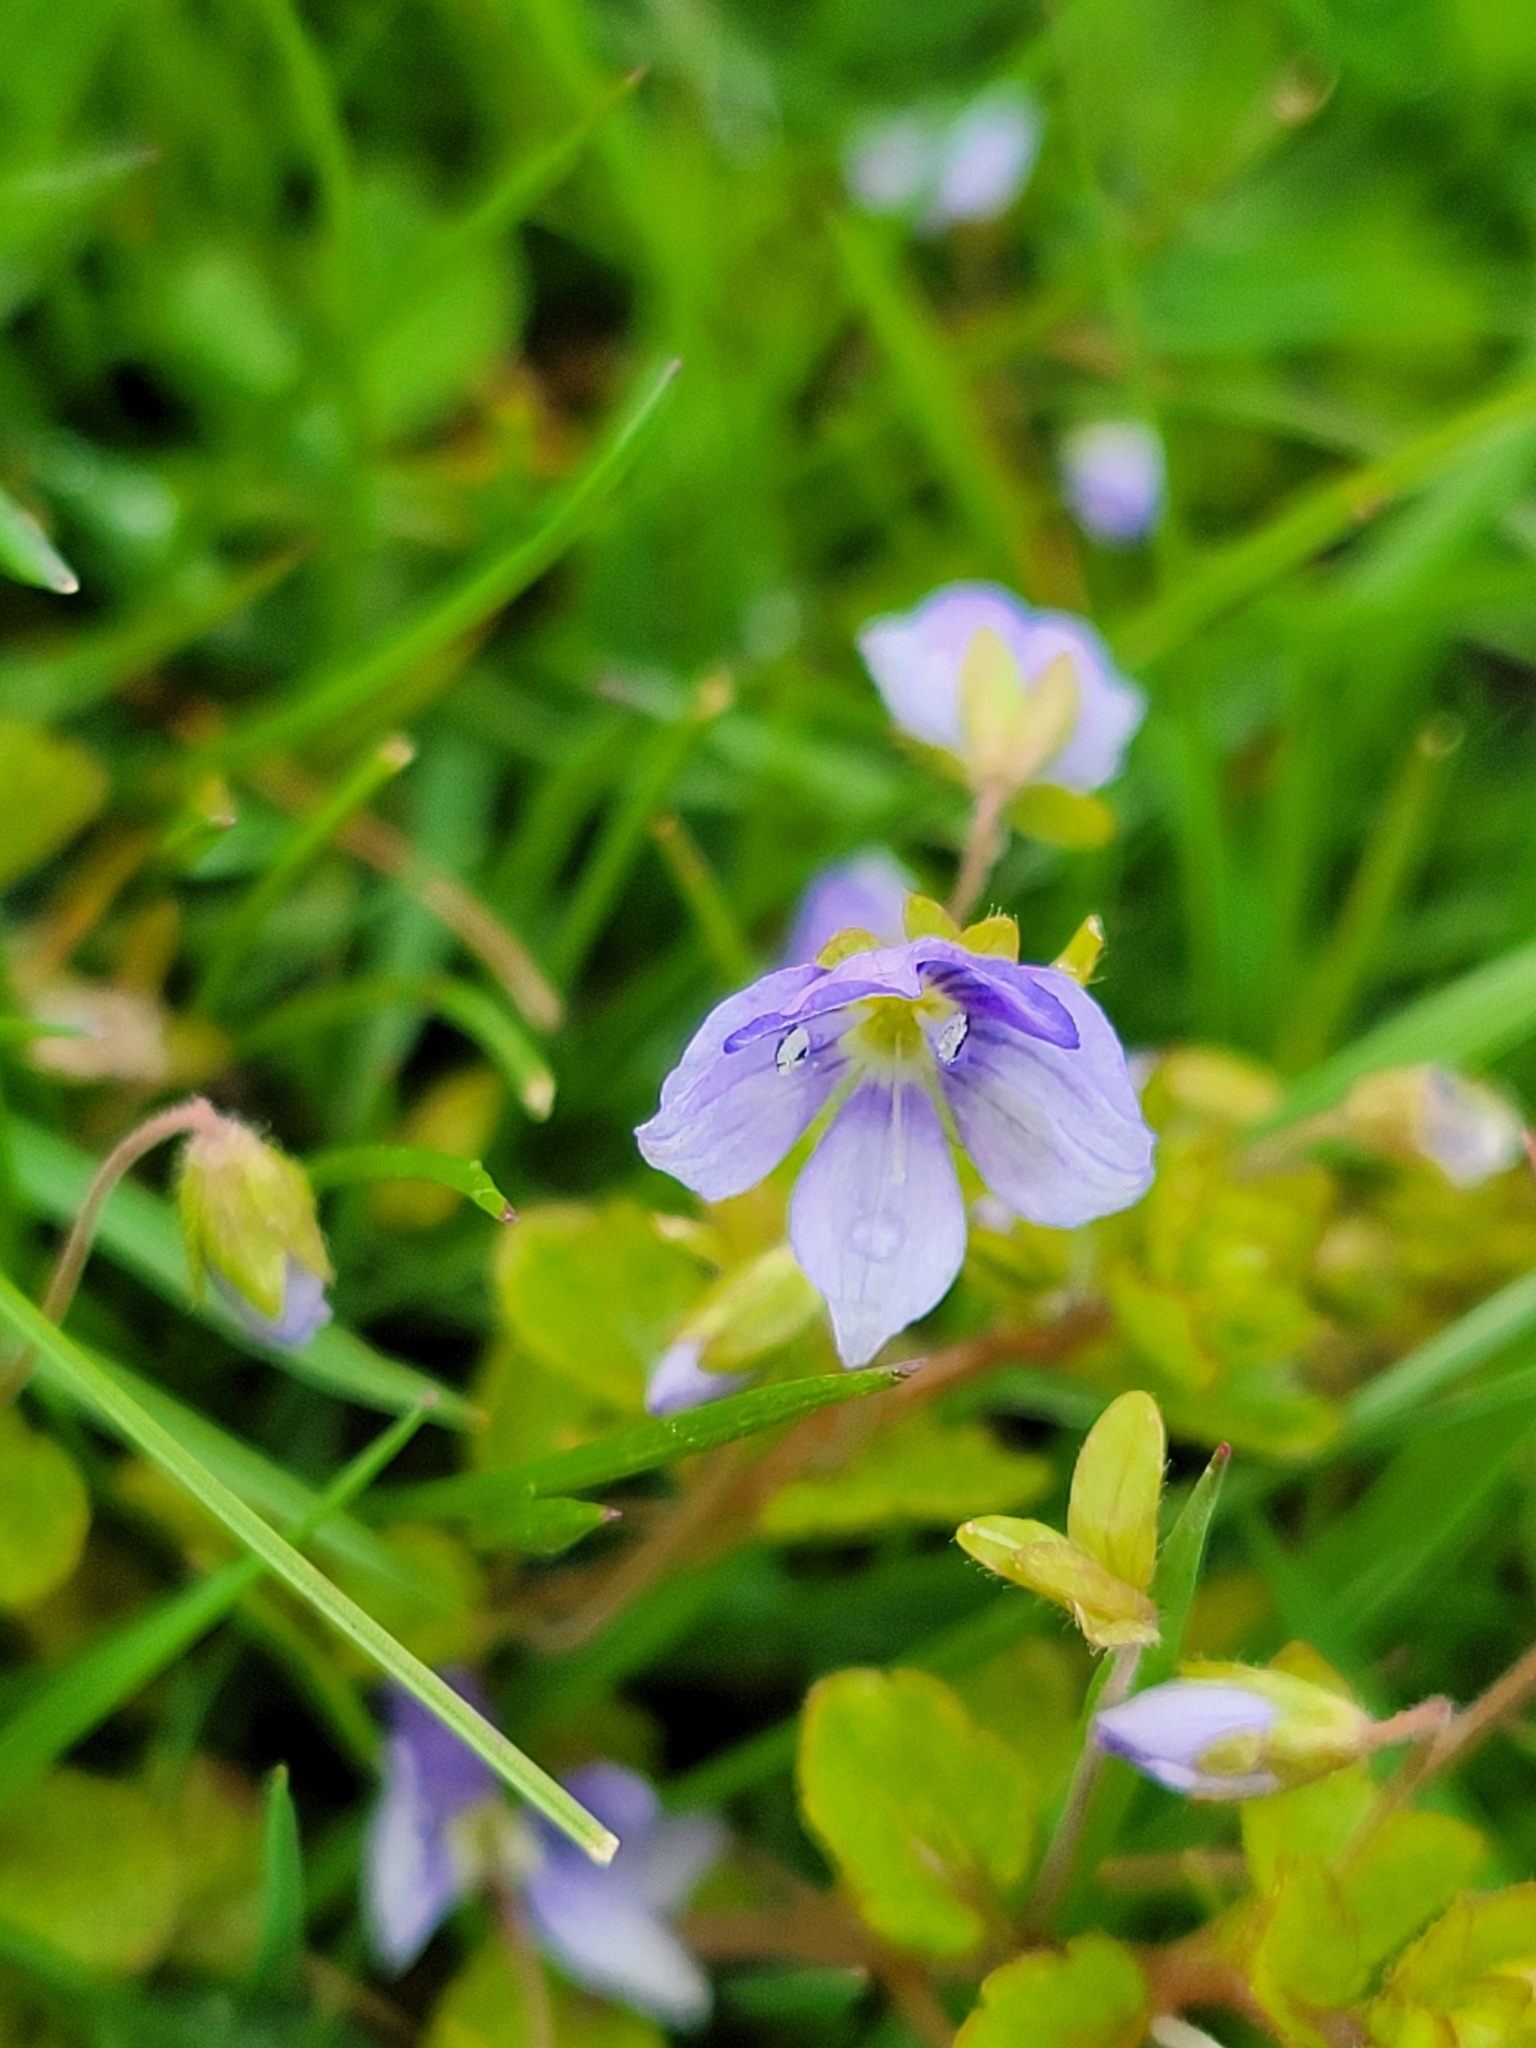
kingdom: Plantae
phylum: Tracheophyta
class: Magnoliopsida
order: Lamiales
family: Plantaginaceae
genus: Veronica
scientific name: Veronica filiformis
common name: Slender speedwell
